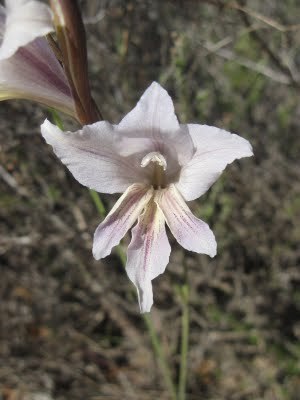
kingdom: Plantae
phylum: Tracheophyta
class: Liliopsida
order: Asparagales
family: Iridaceae
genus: Gladiolus
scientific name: Gladiolus carinatus
